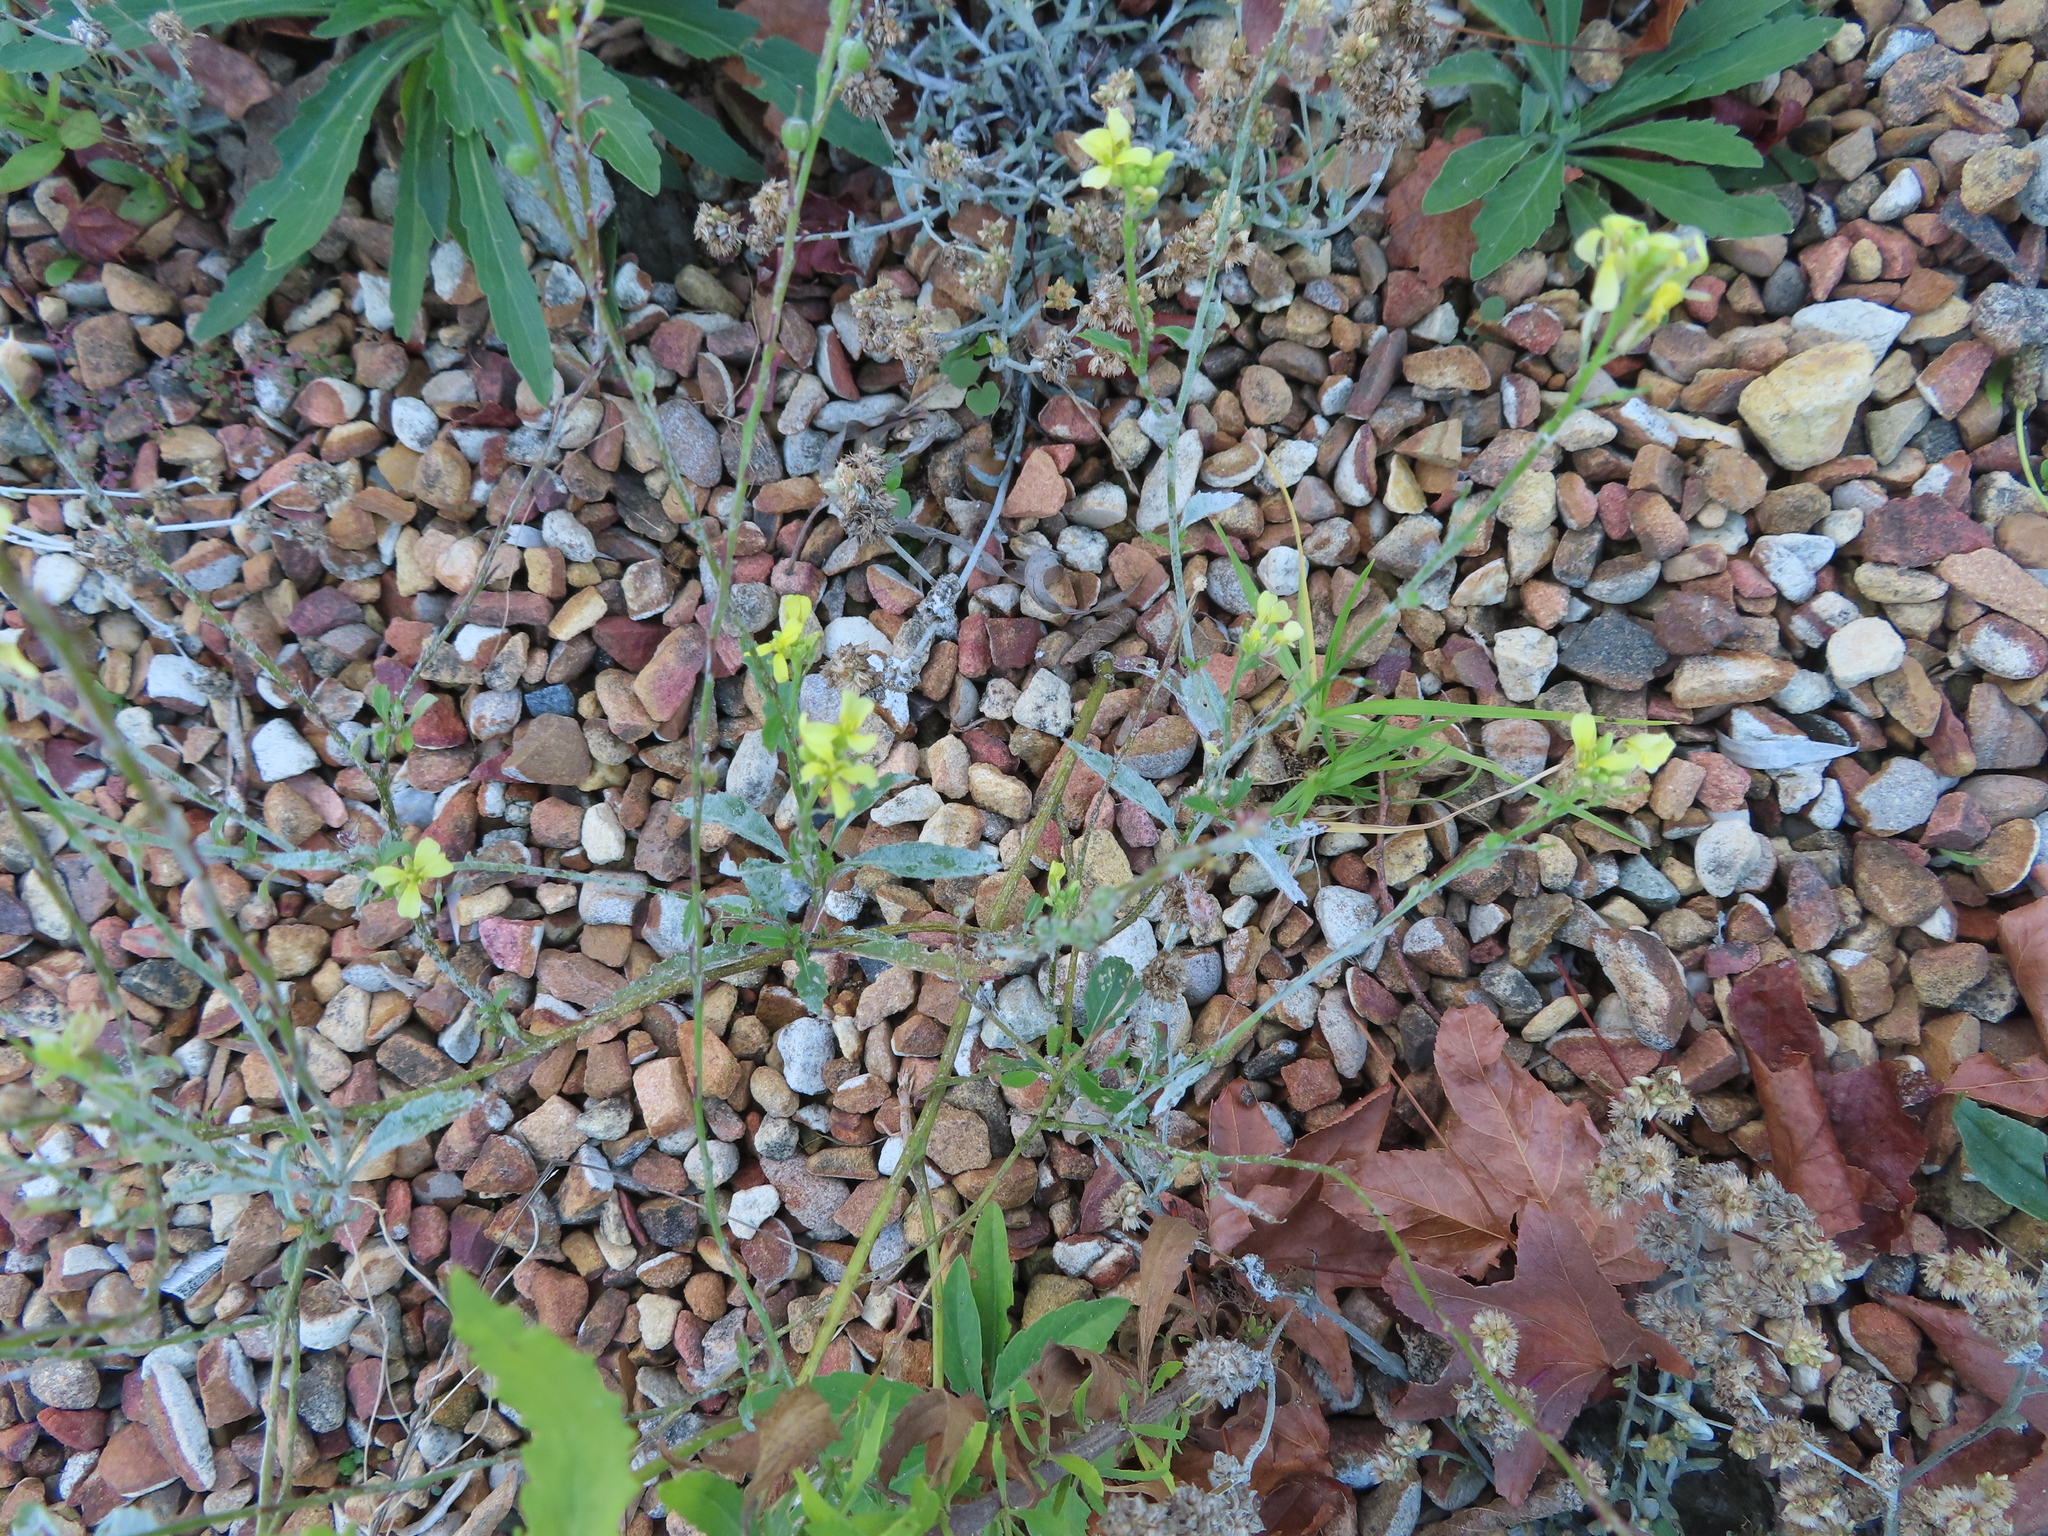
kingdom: Plantae
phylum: Tracheophyta
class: Magnoliopsida
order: Brassicales
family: Brassicaceae
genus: Rapistrum
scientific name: Rapistrum rugosum
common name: Annual bastardcabbage
